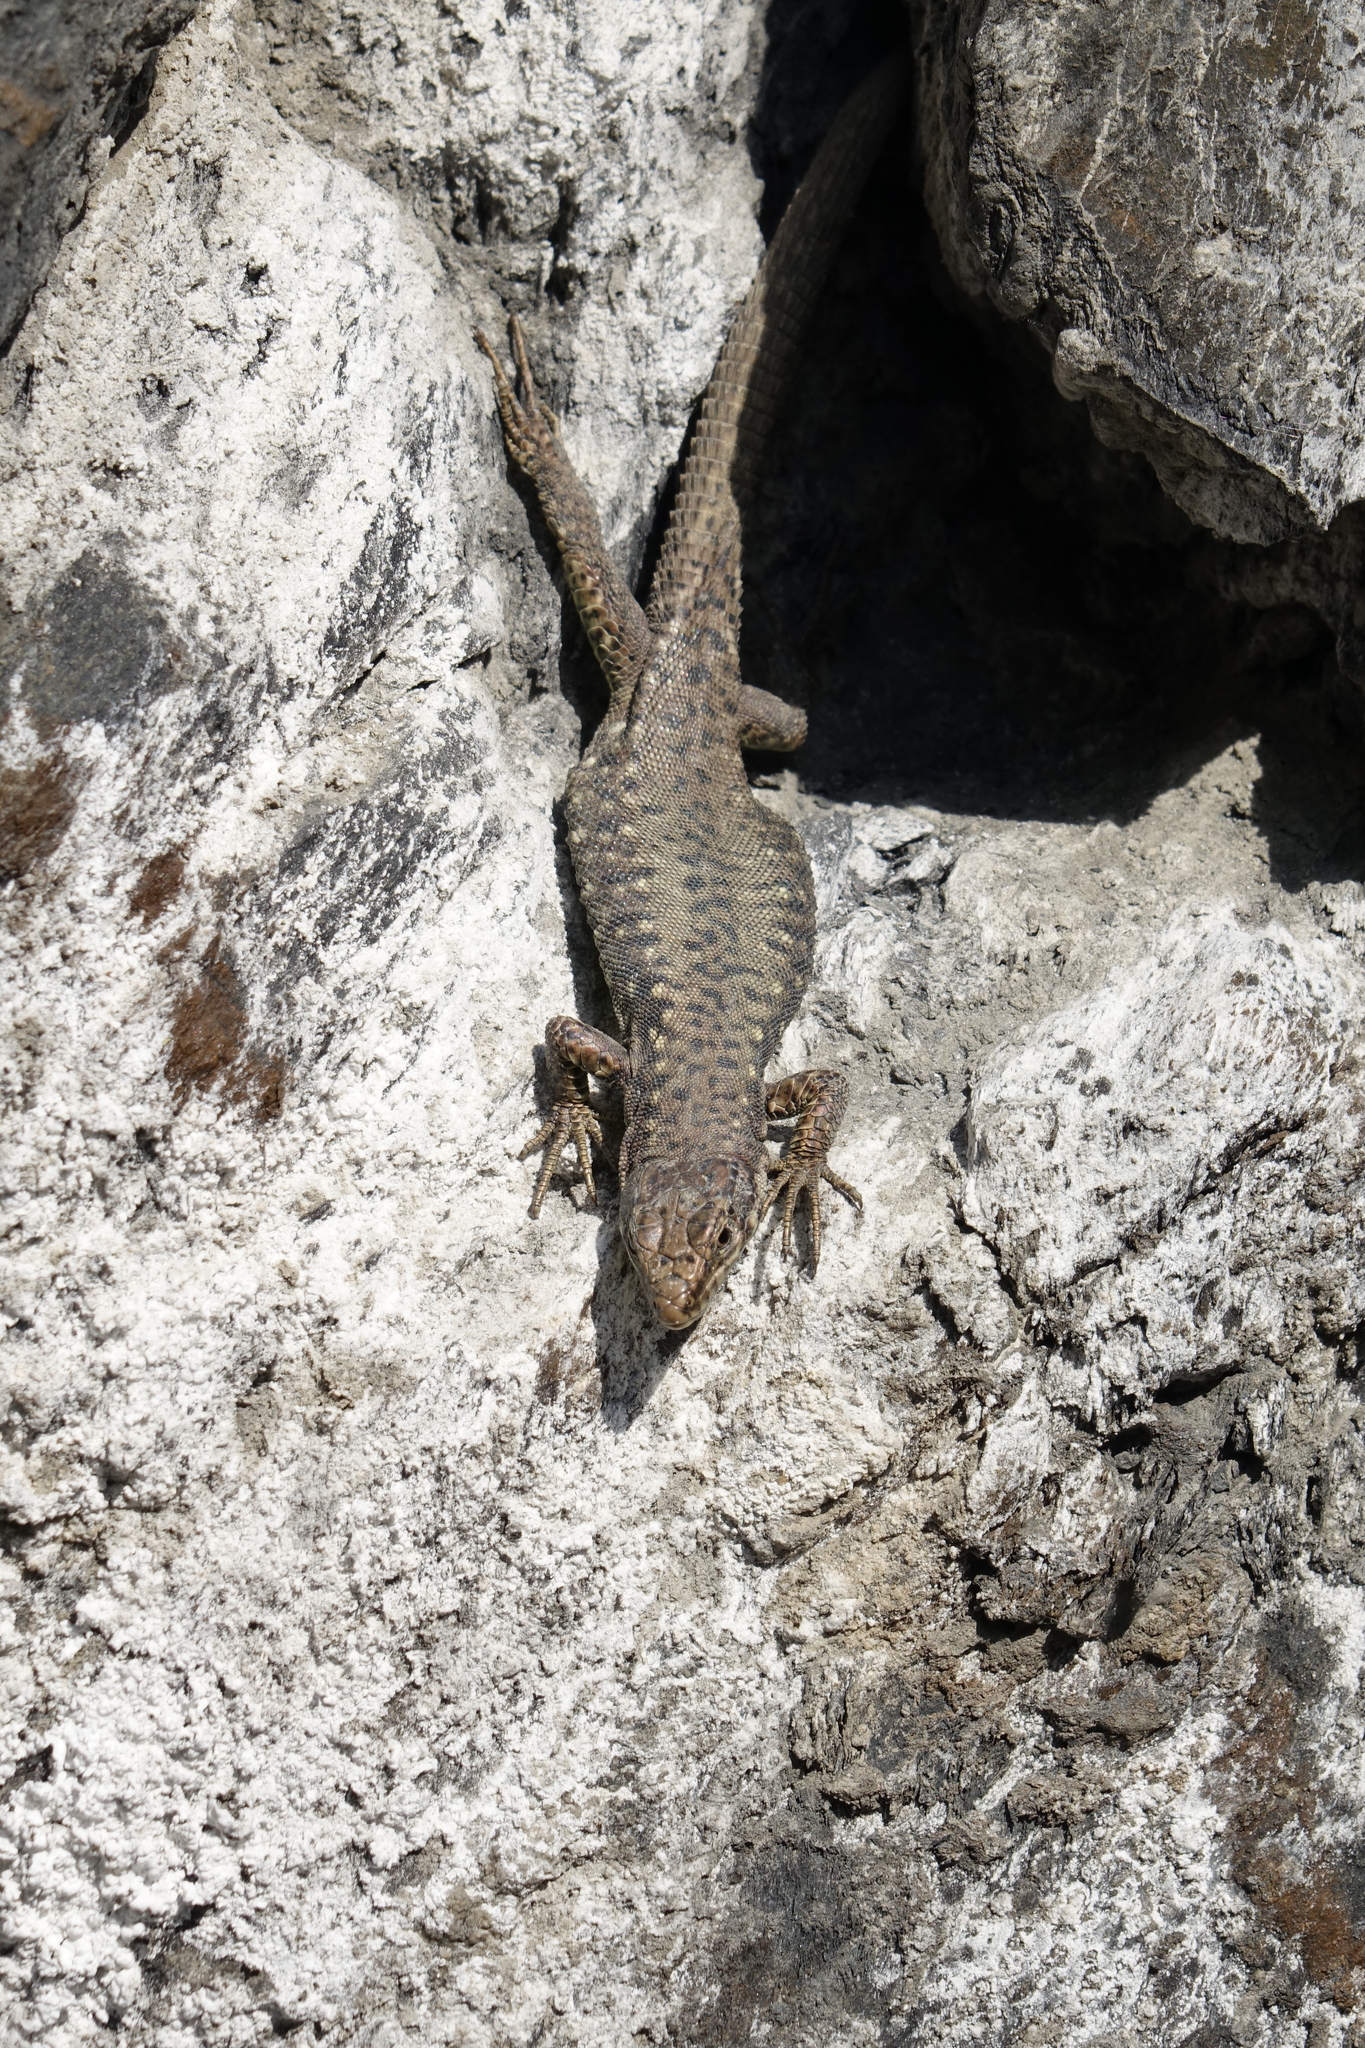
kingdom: Animalia
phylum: Chordata
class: Squamata
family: Lacertidae
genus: Darevskia
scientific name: Darevskia rudis
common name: Spiny-tailed lizard
